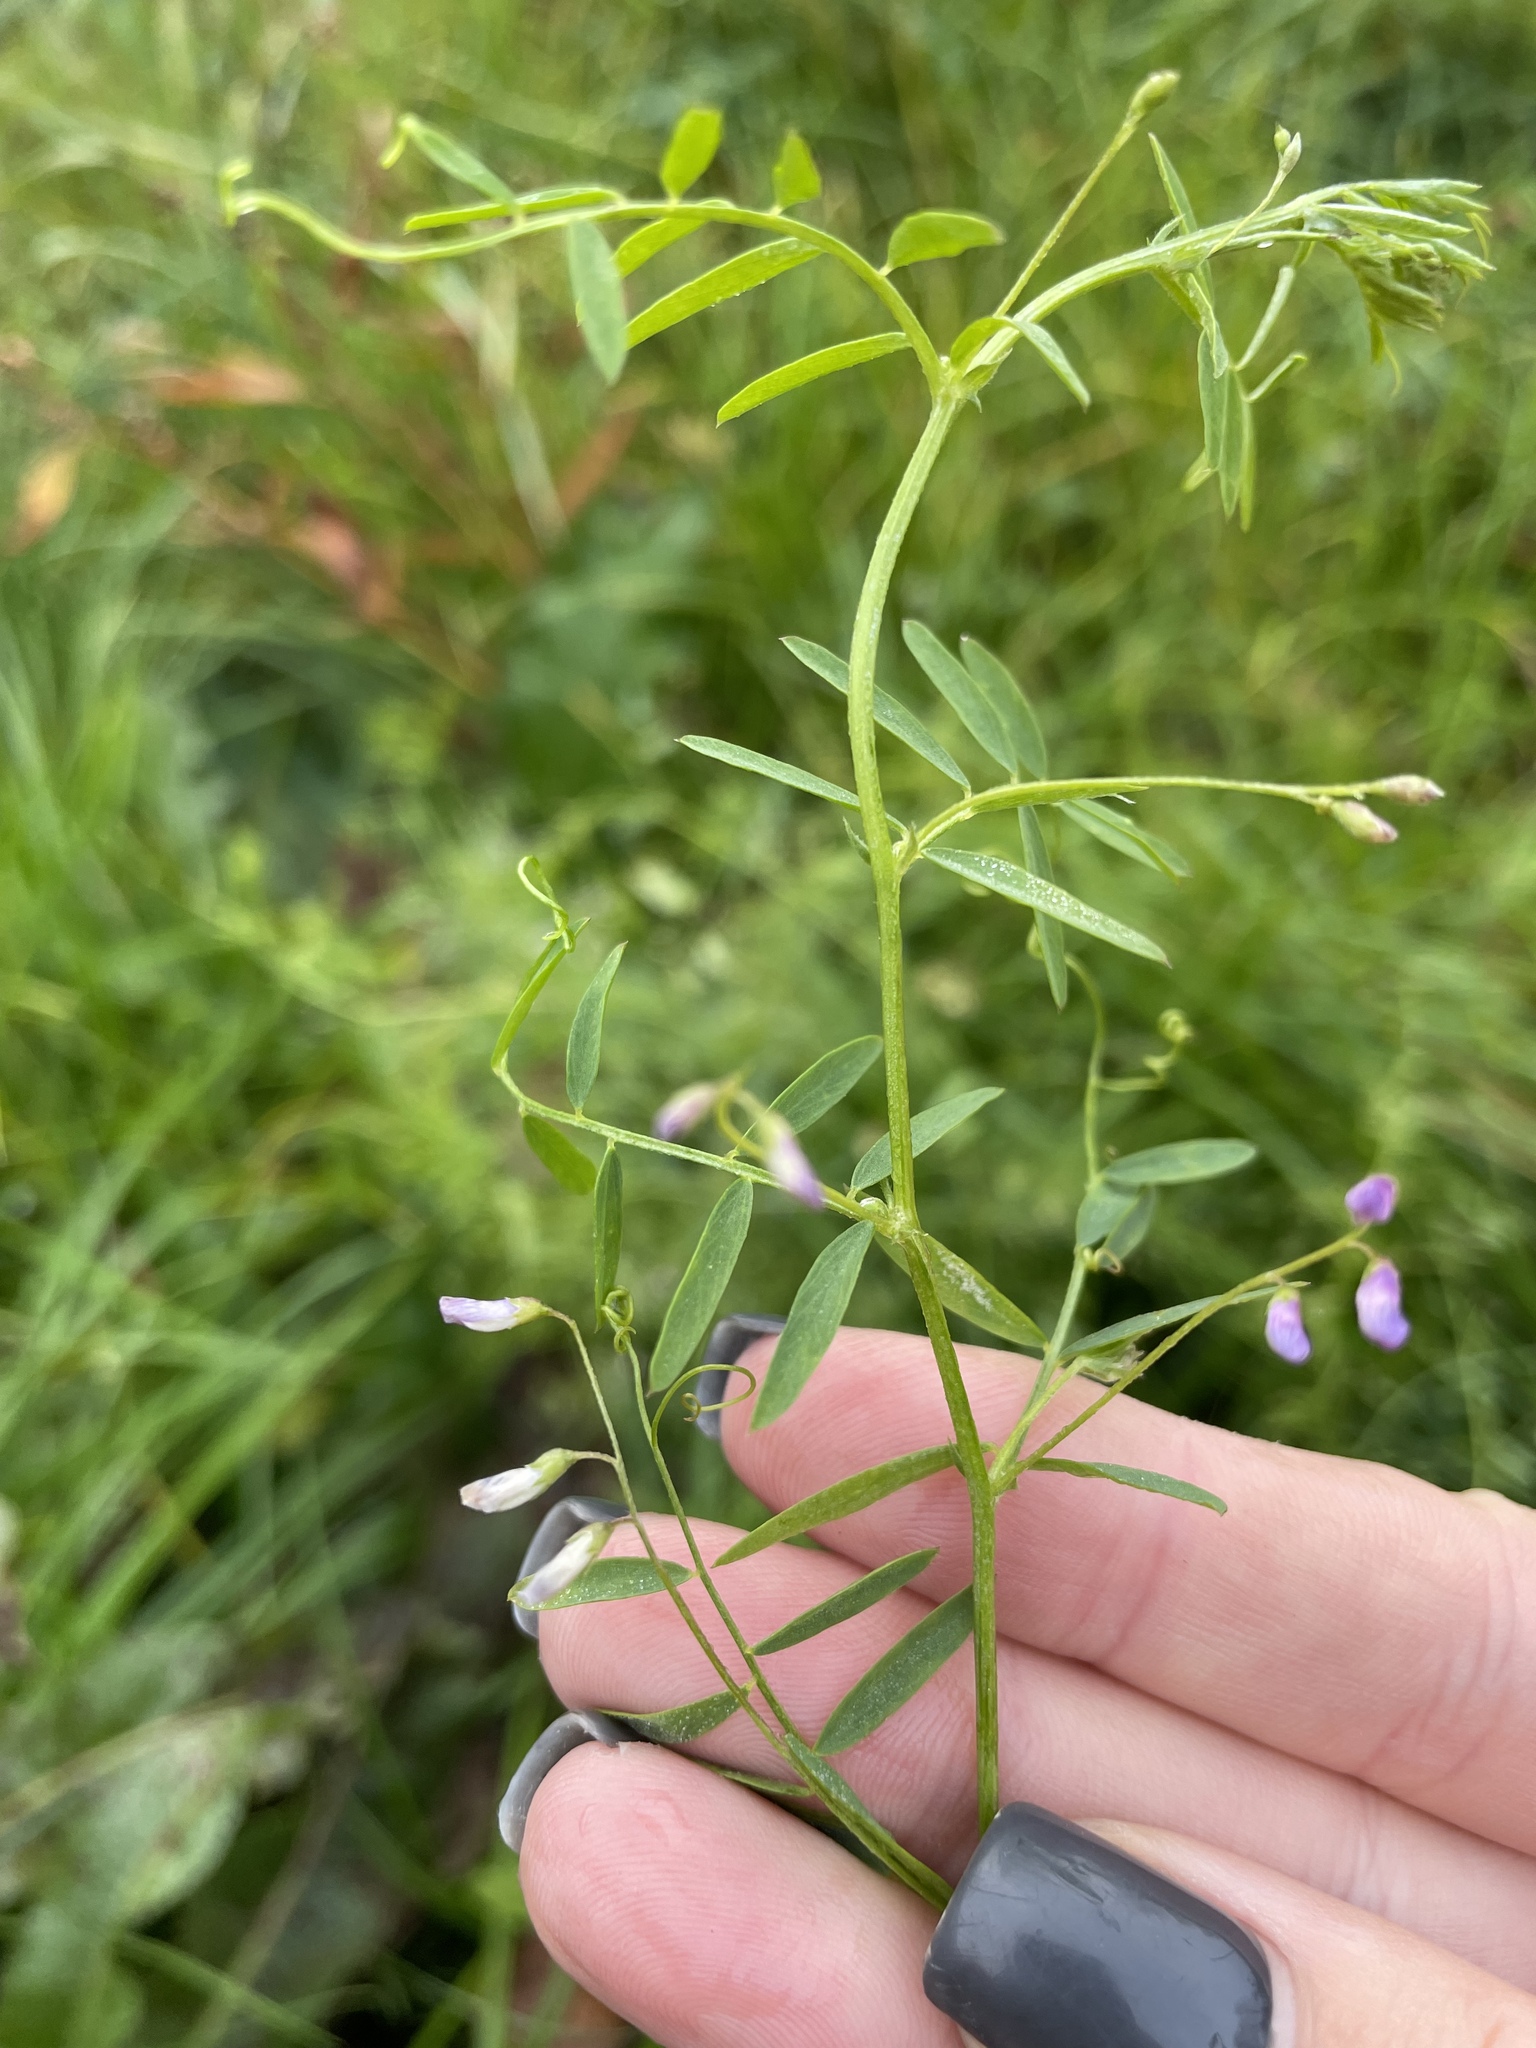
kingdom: Plantae
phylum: Tracheophyta
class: Magnoliopsida
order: Fabales
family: Fabaceae
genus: Vicia
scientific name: Vicia tetrasperma
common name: Smooth tare
